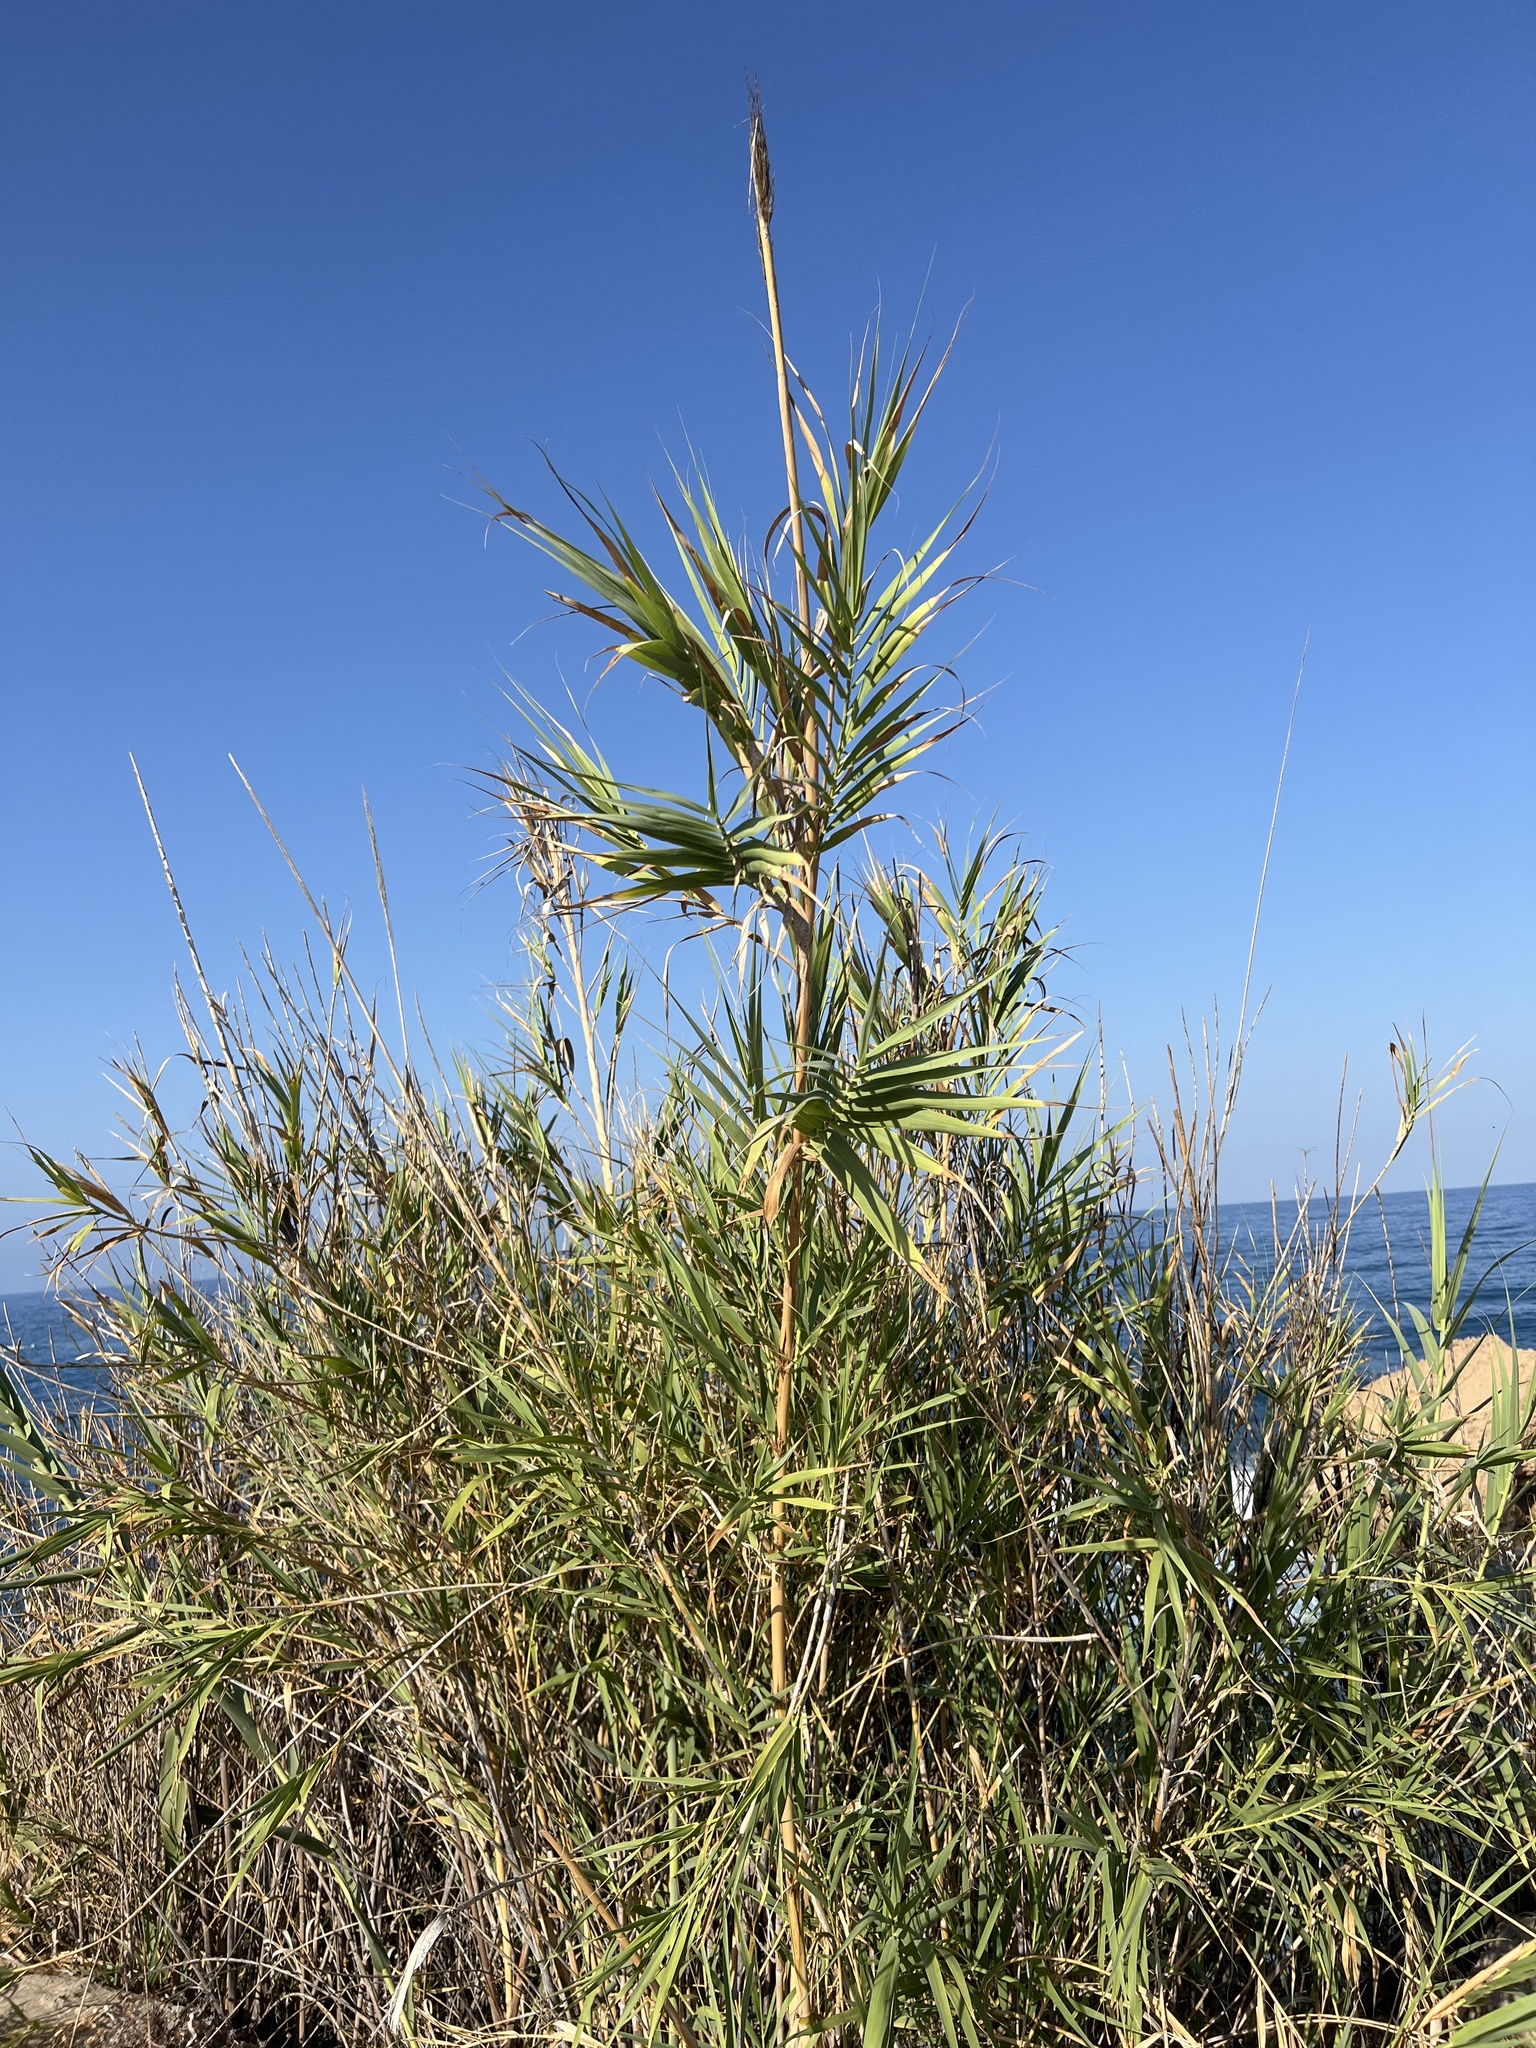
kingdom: Plantae
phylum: Tracheophyta
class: Liliopsida
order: Poales
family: Poaceae
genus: Arundo
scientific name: Arundo donax
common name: Giant reed
